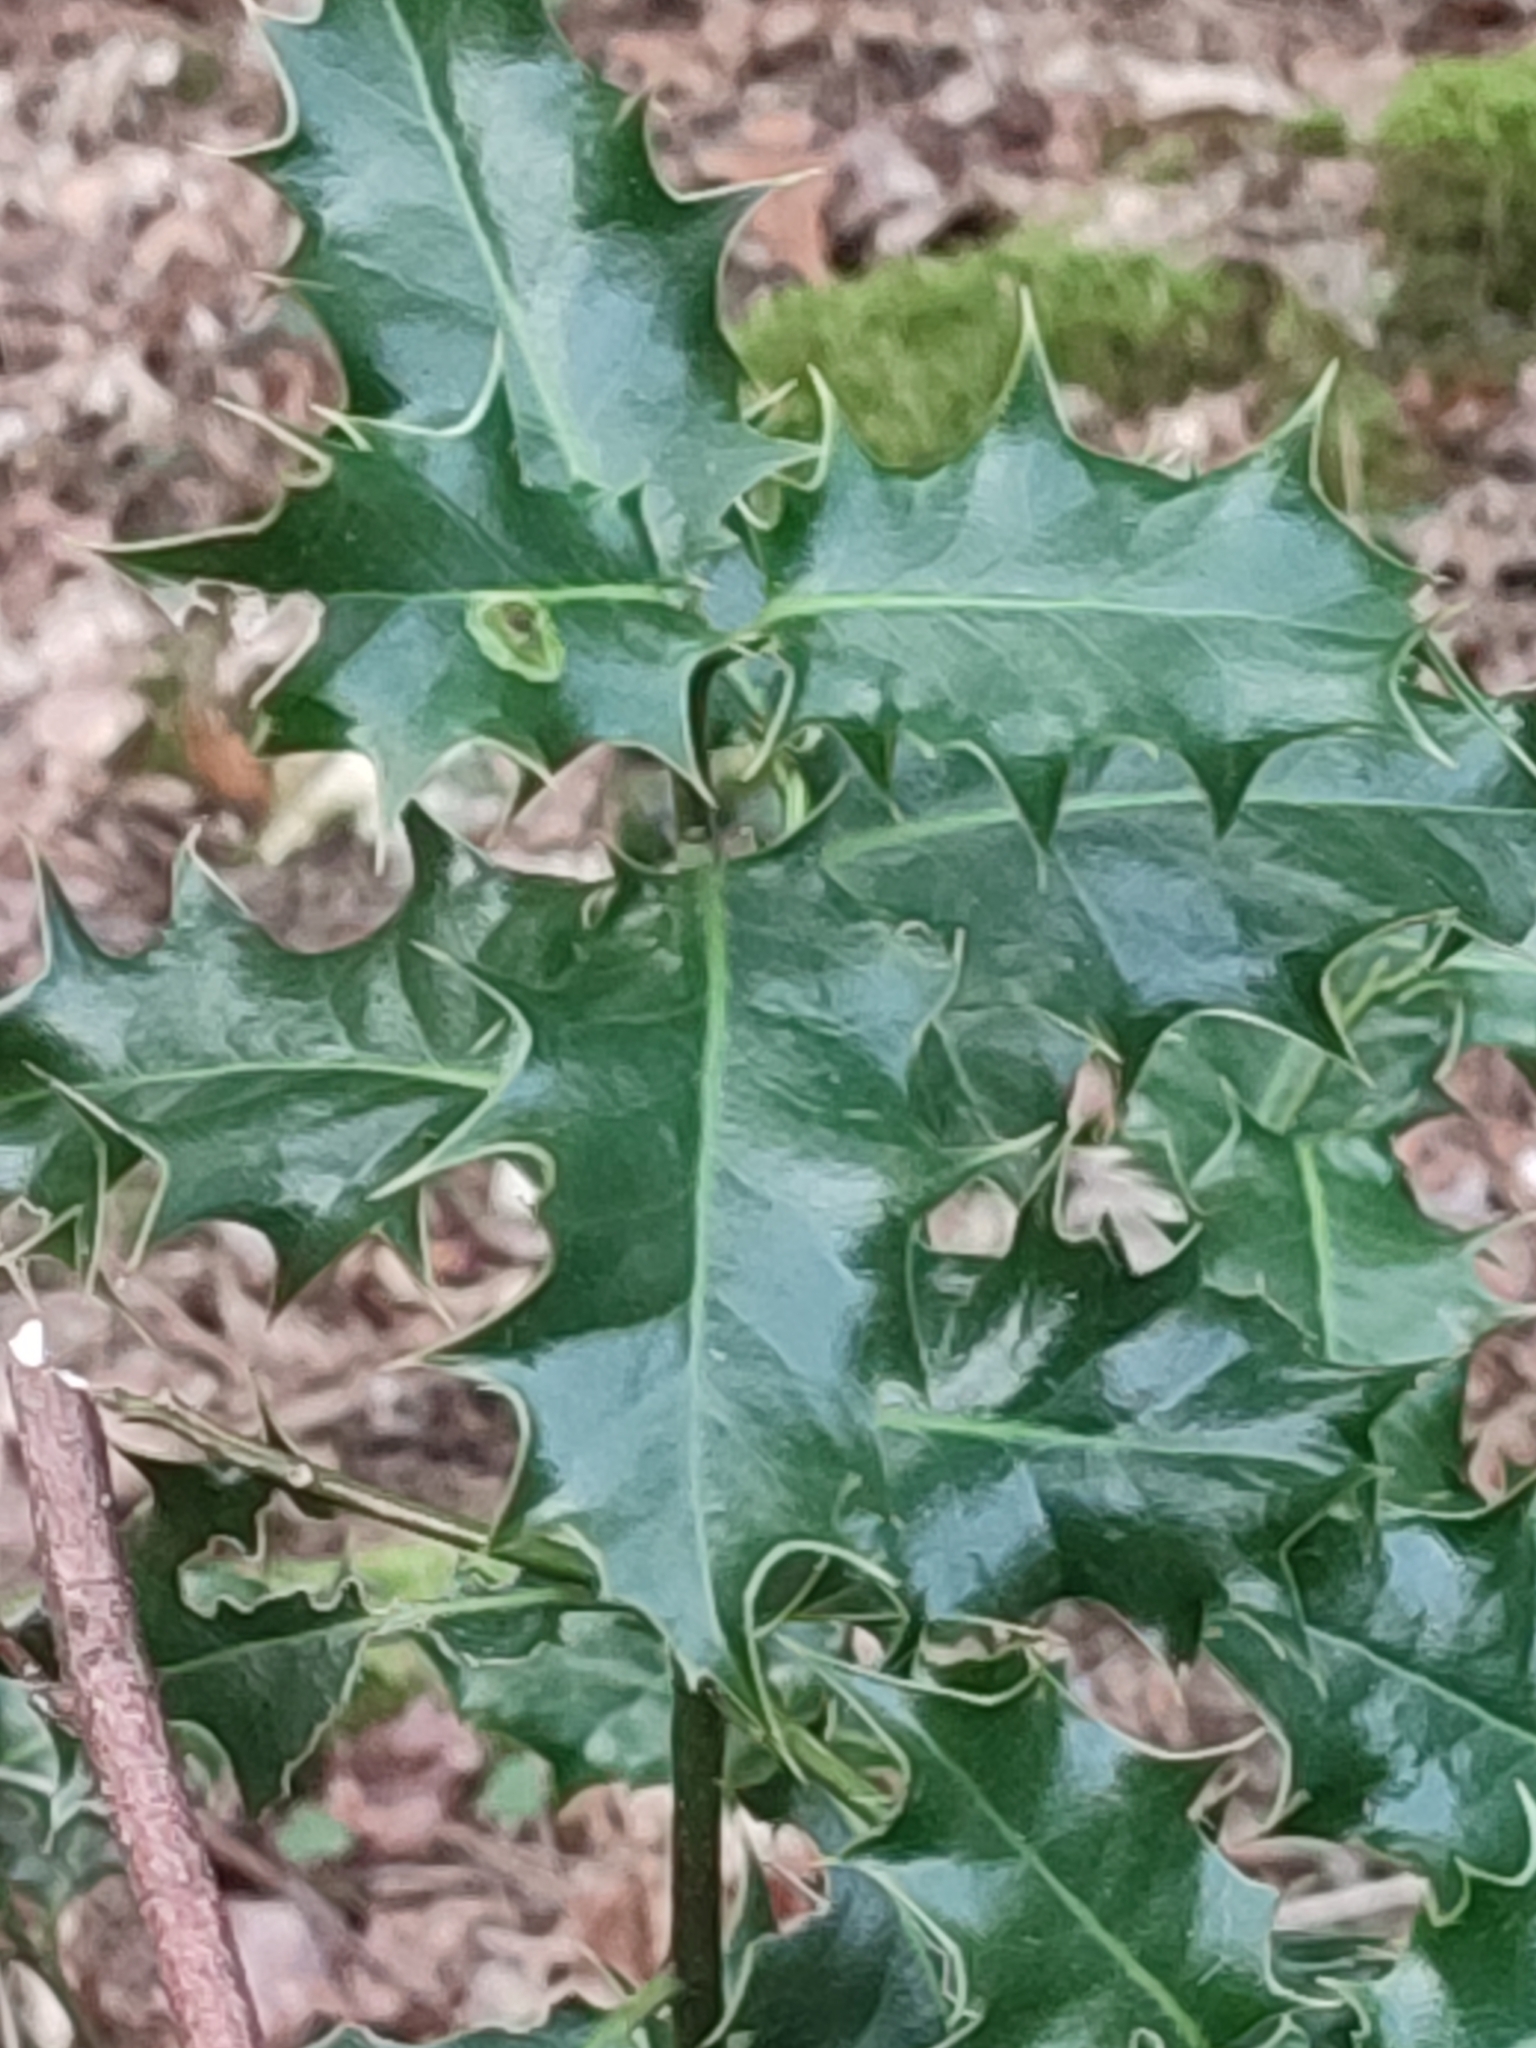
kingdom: Plantae
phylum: Tracheophyta
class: Magnoliopsida
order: Aquifoliales
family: Aquifoliaceae
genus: Ilex
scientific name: Ilex aquifolium
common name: English holly
